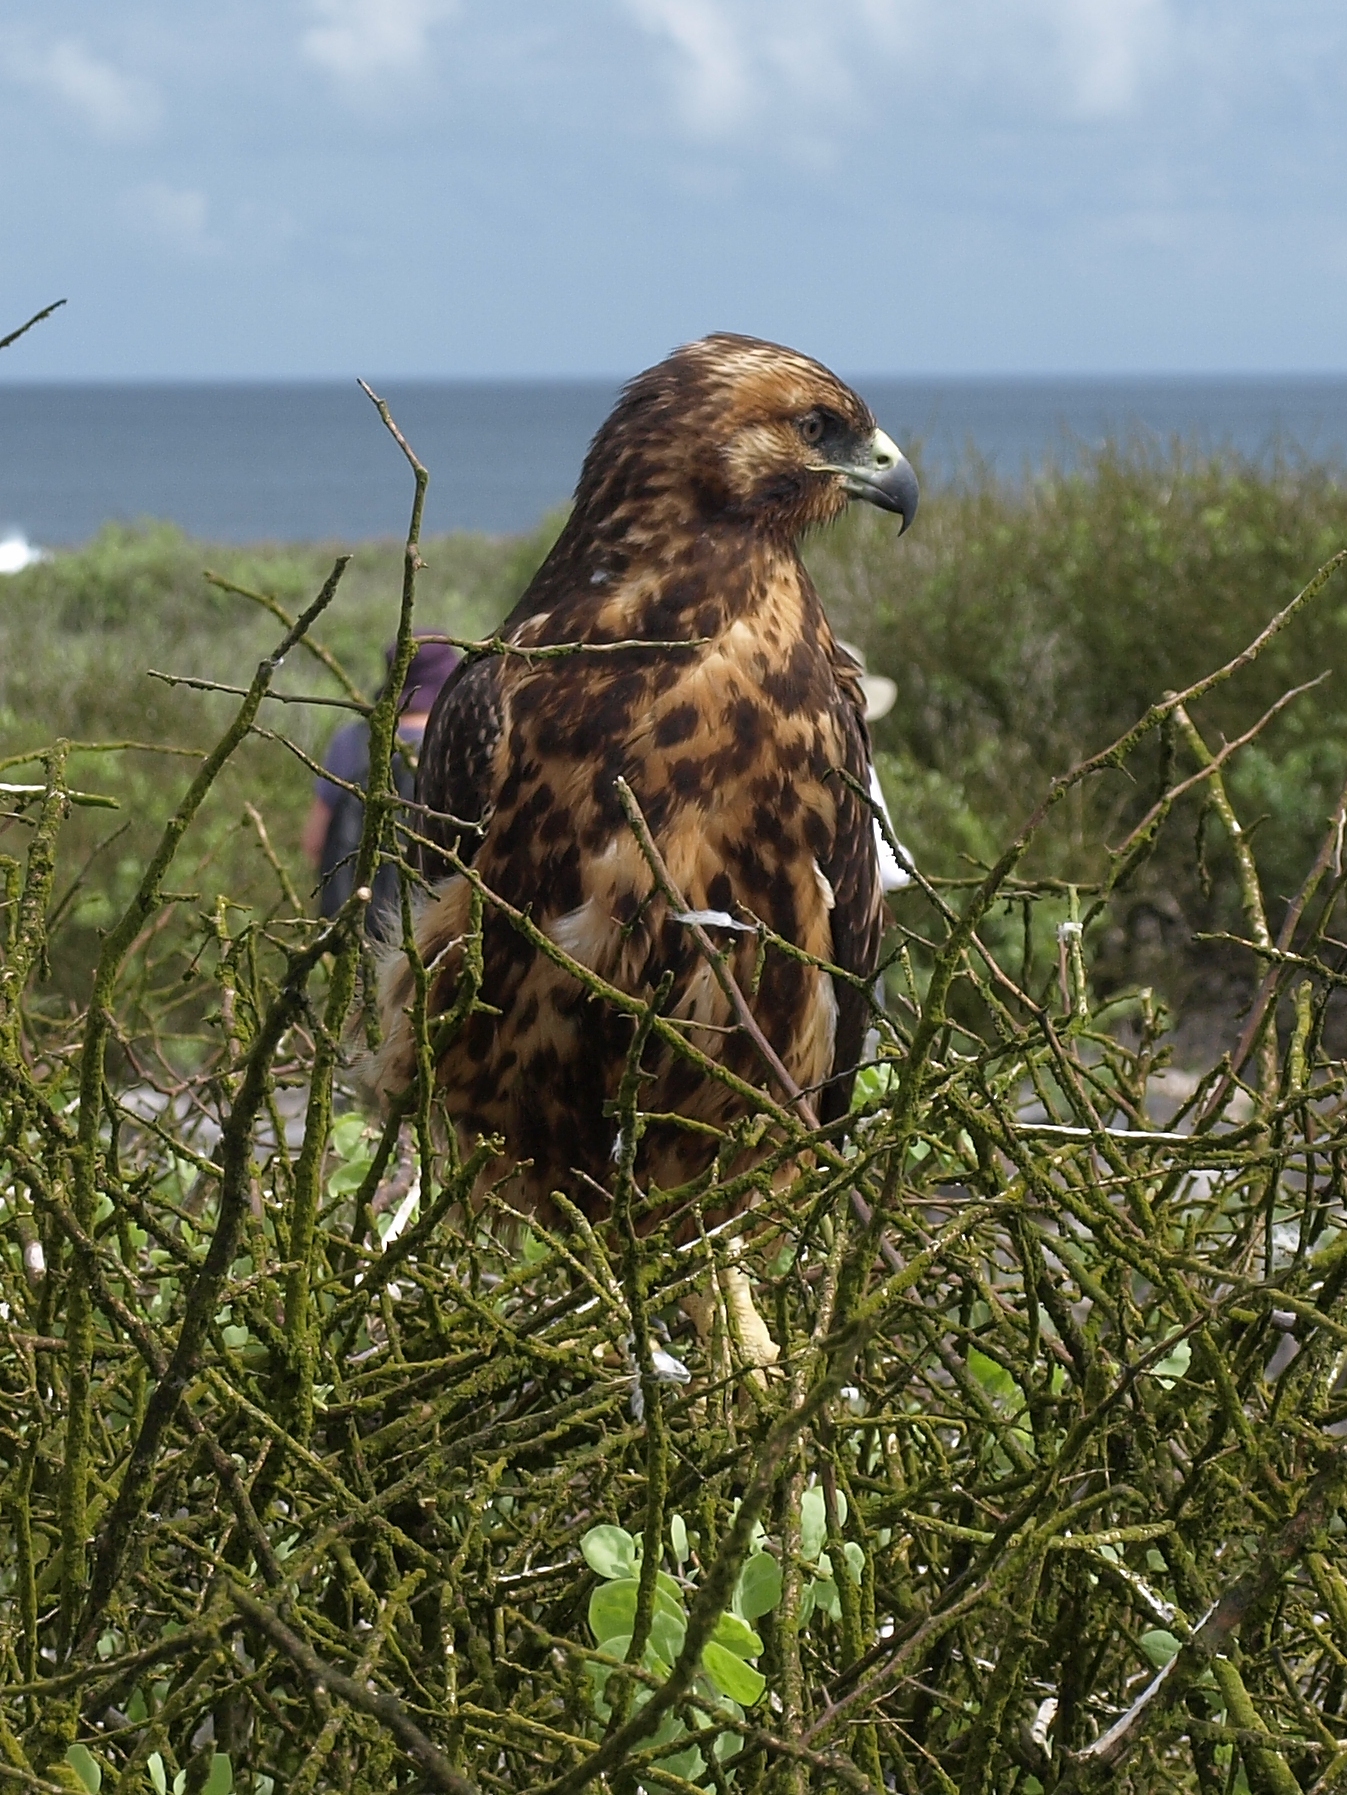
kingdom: Animalia
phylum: Chordata
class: Aves
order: Accipitriformes
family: Accipitridae
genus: Buteo
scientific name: Buteo galapagoensis
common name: Galapagos hawk
